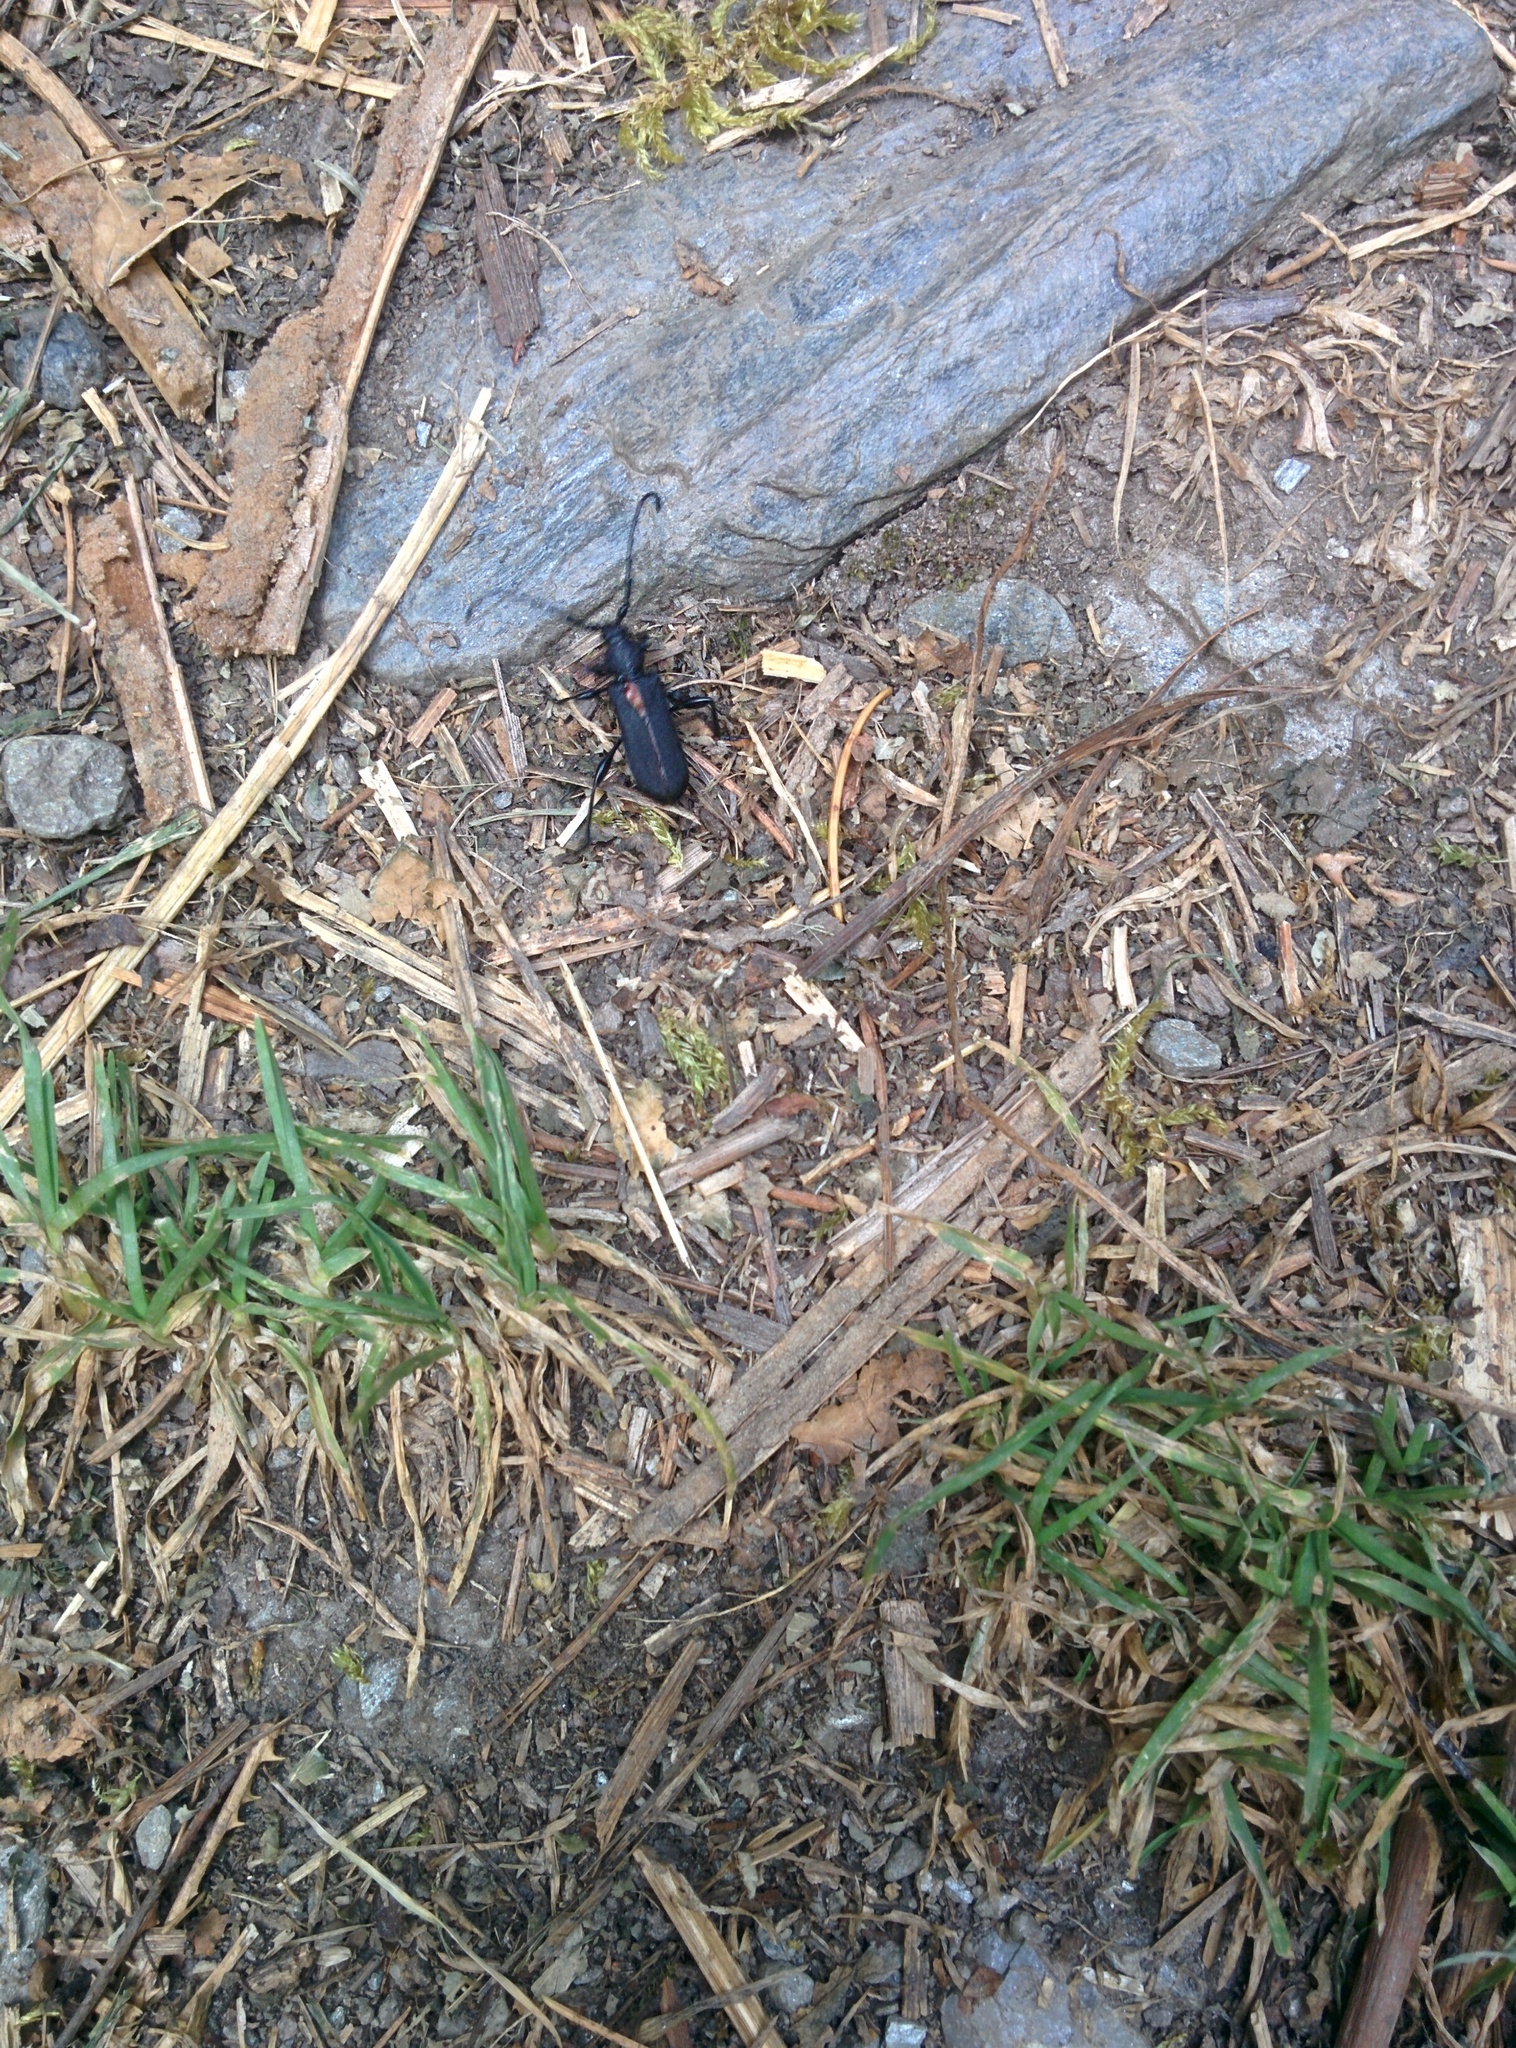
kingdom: Animalia
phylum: Arthropoda
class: Insecta
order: Coleoptera
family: Cerambycidae
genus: Ropalopus
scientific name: Ropalopus clavipes
